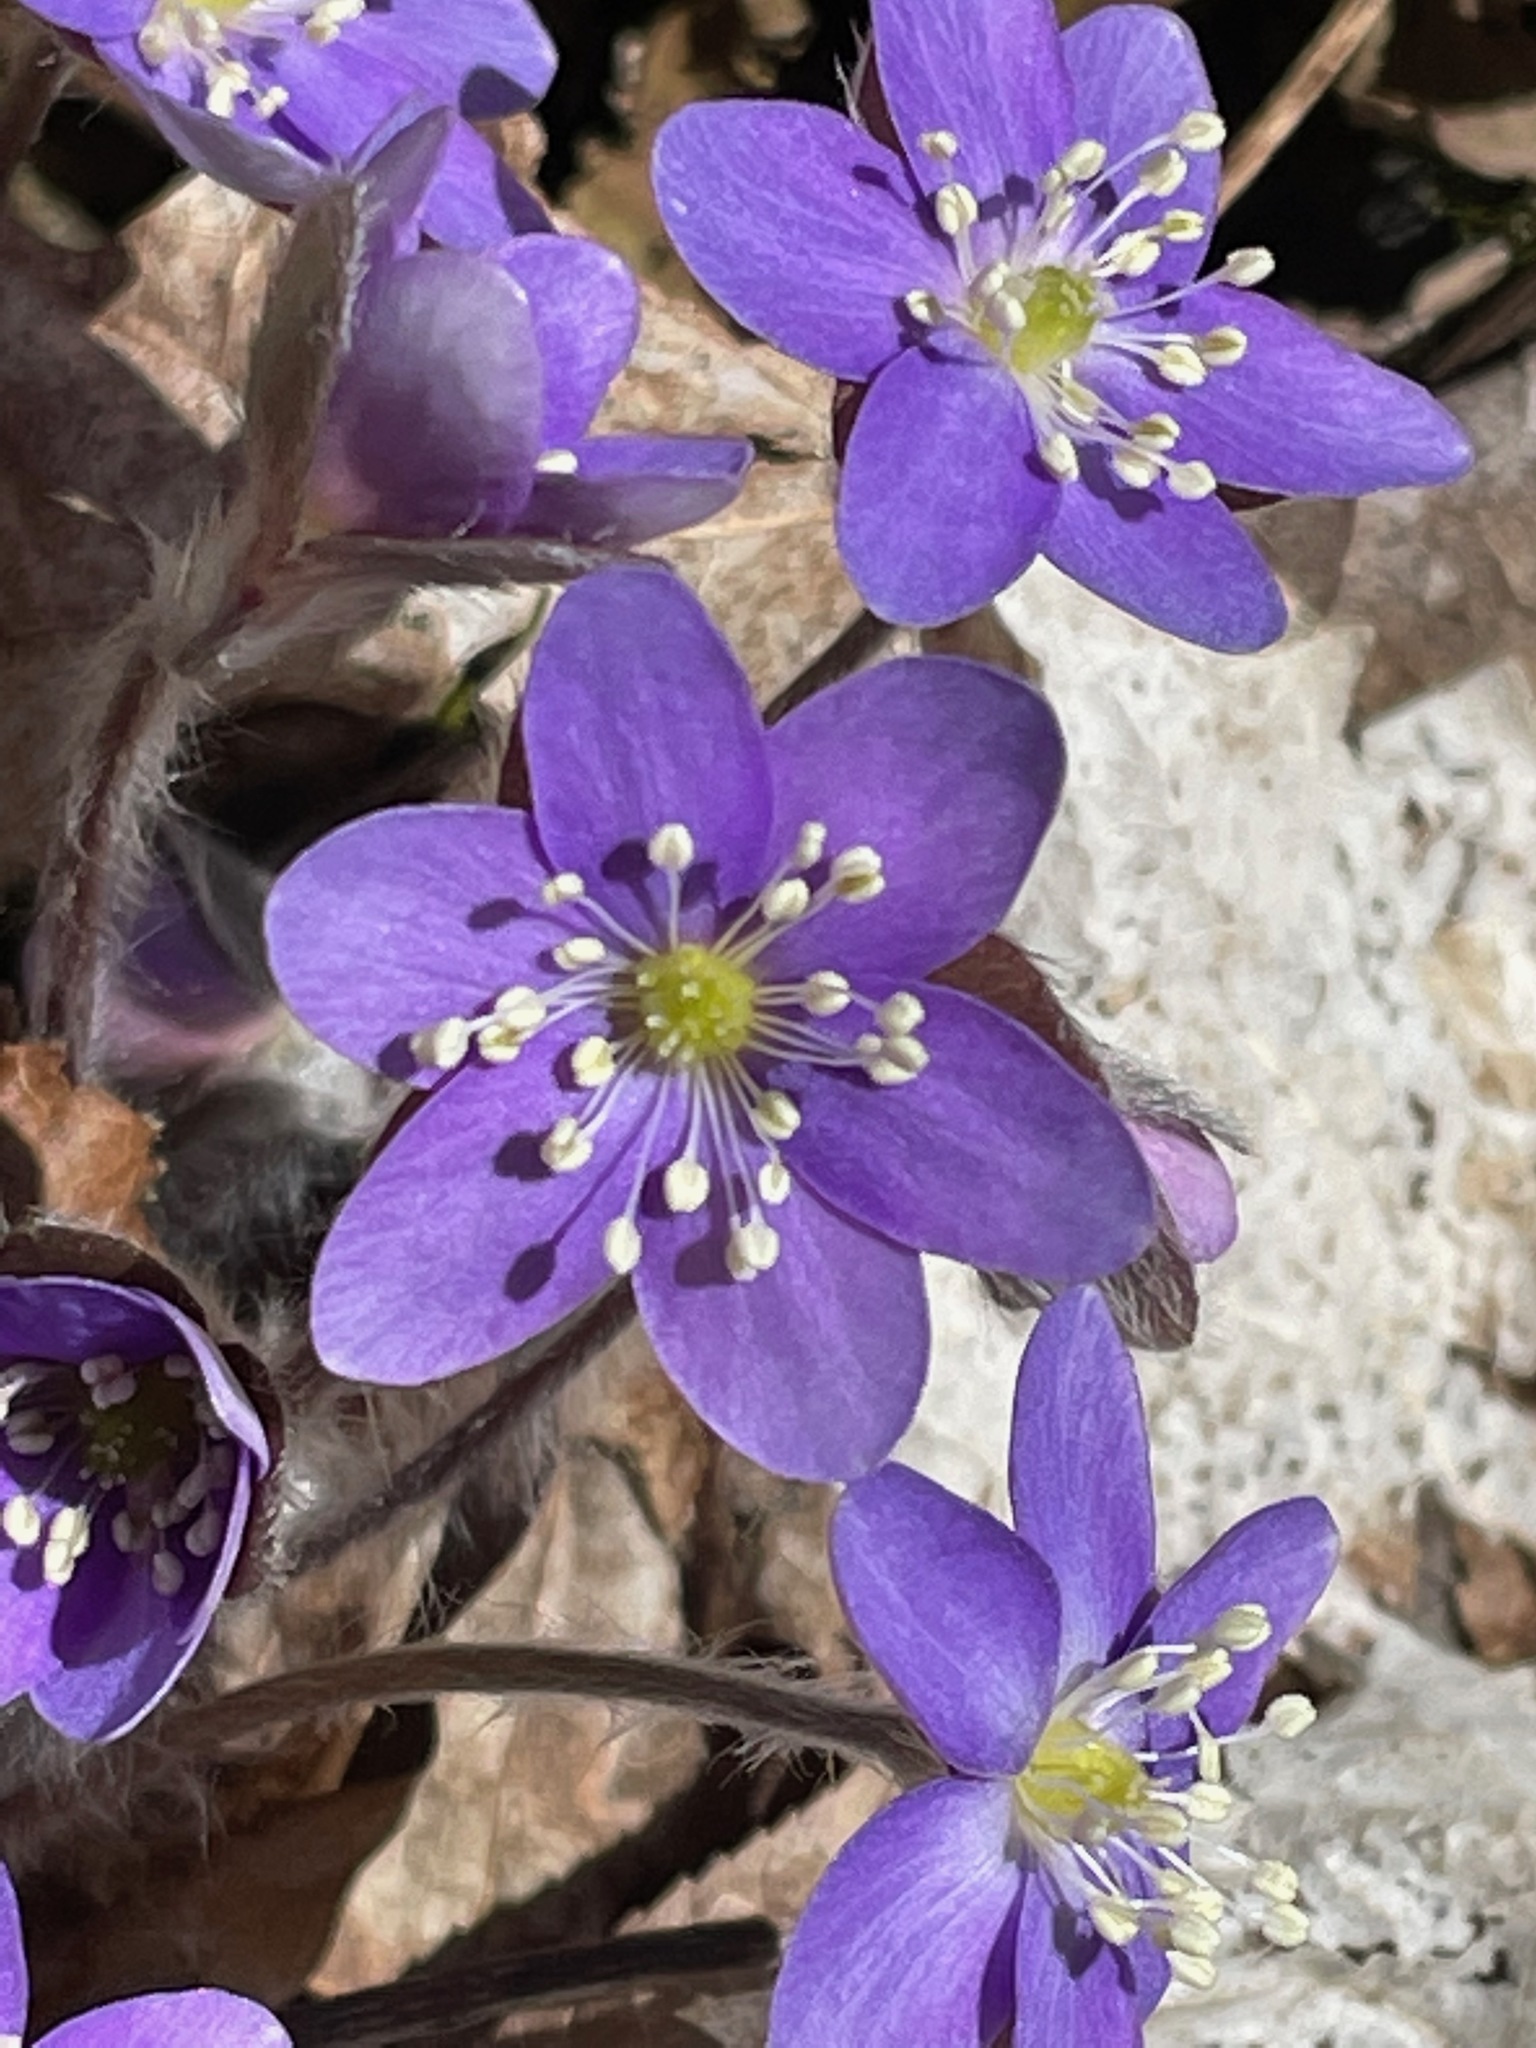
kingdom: Plantae
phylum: Tracheophyta
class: Magnoliopsida
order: Ranunculales
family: Ranunculaceae
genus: Hepatica
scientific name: Hepatica americana
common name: American hepatica
